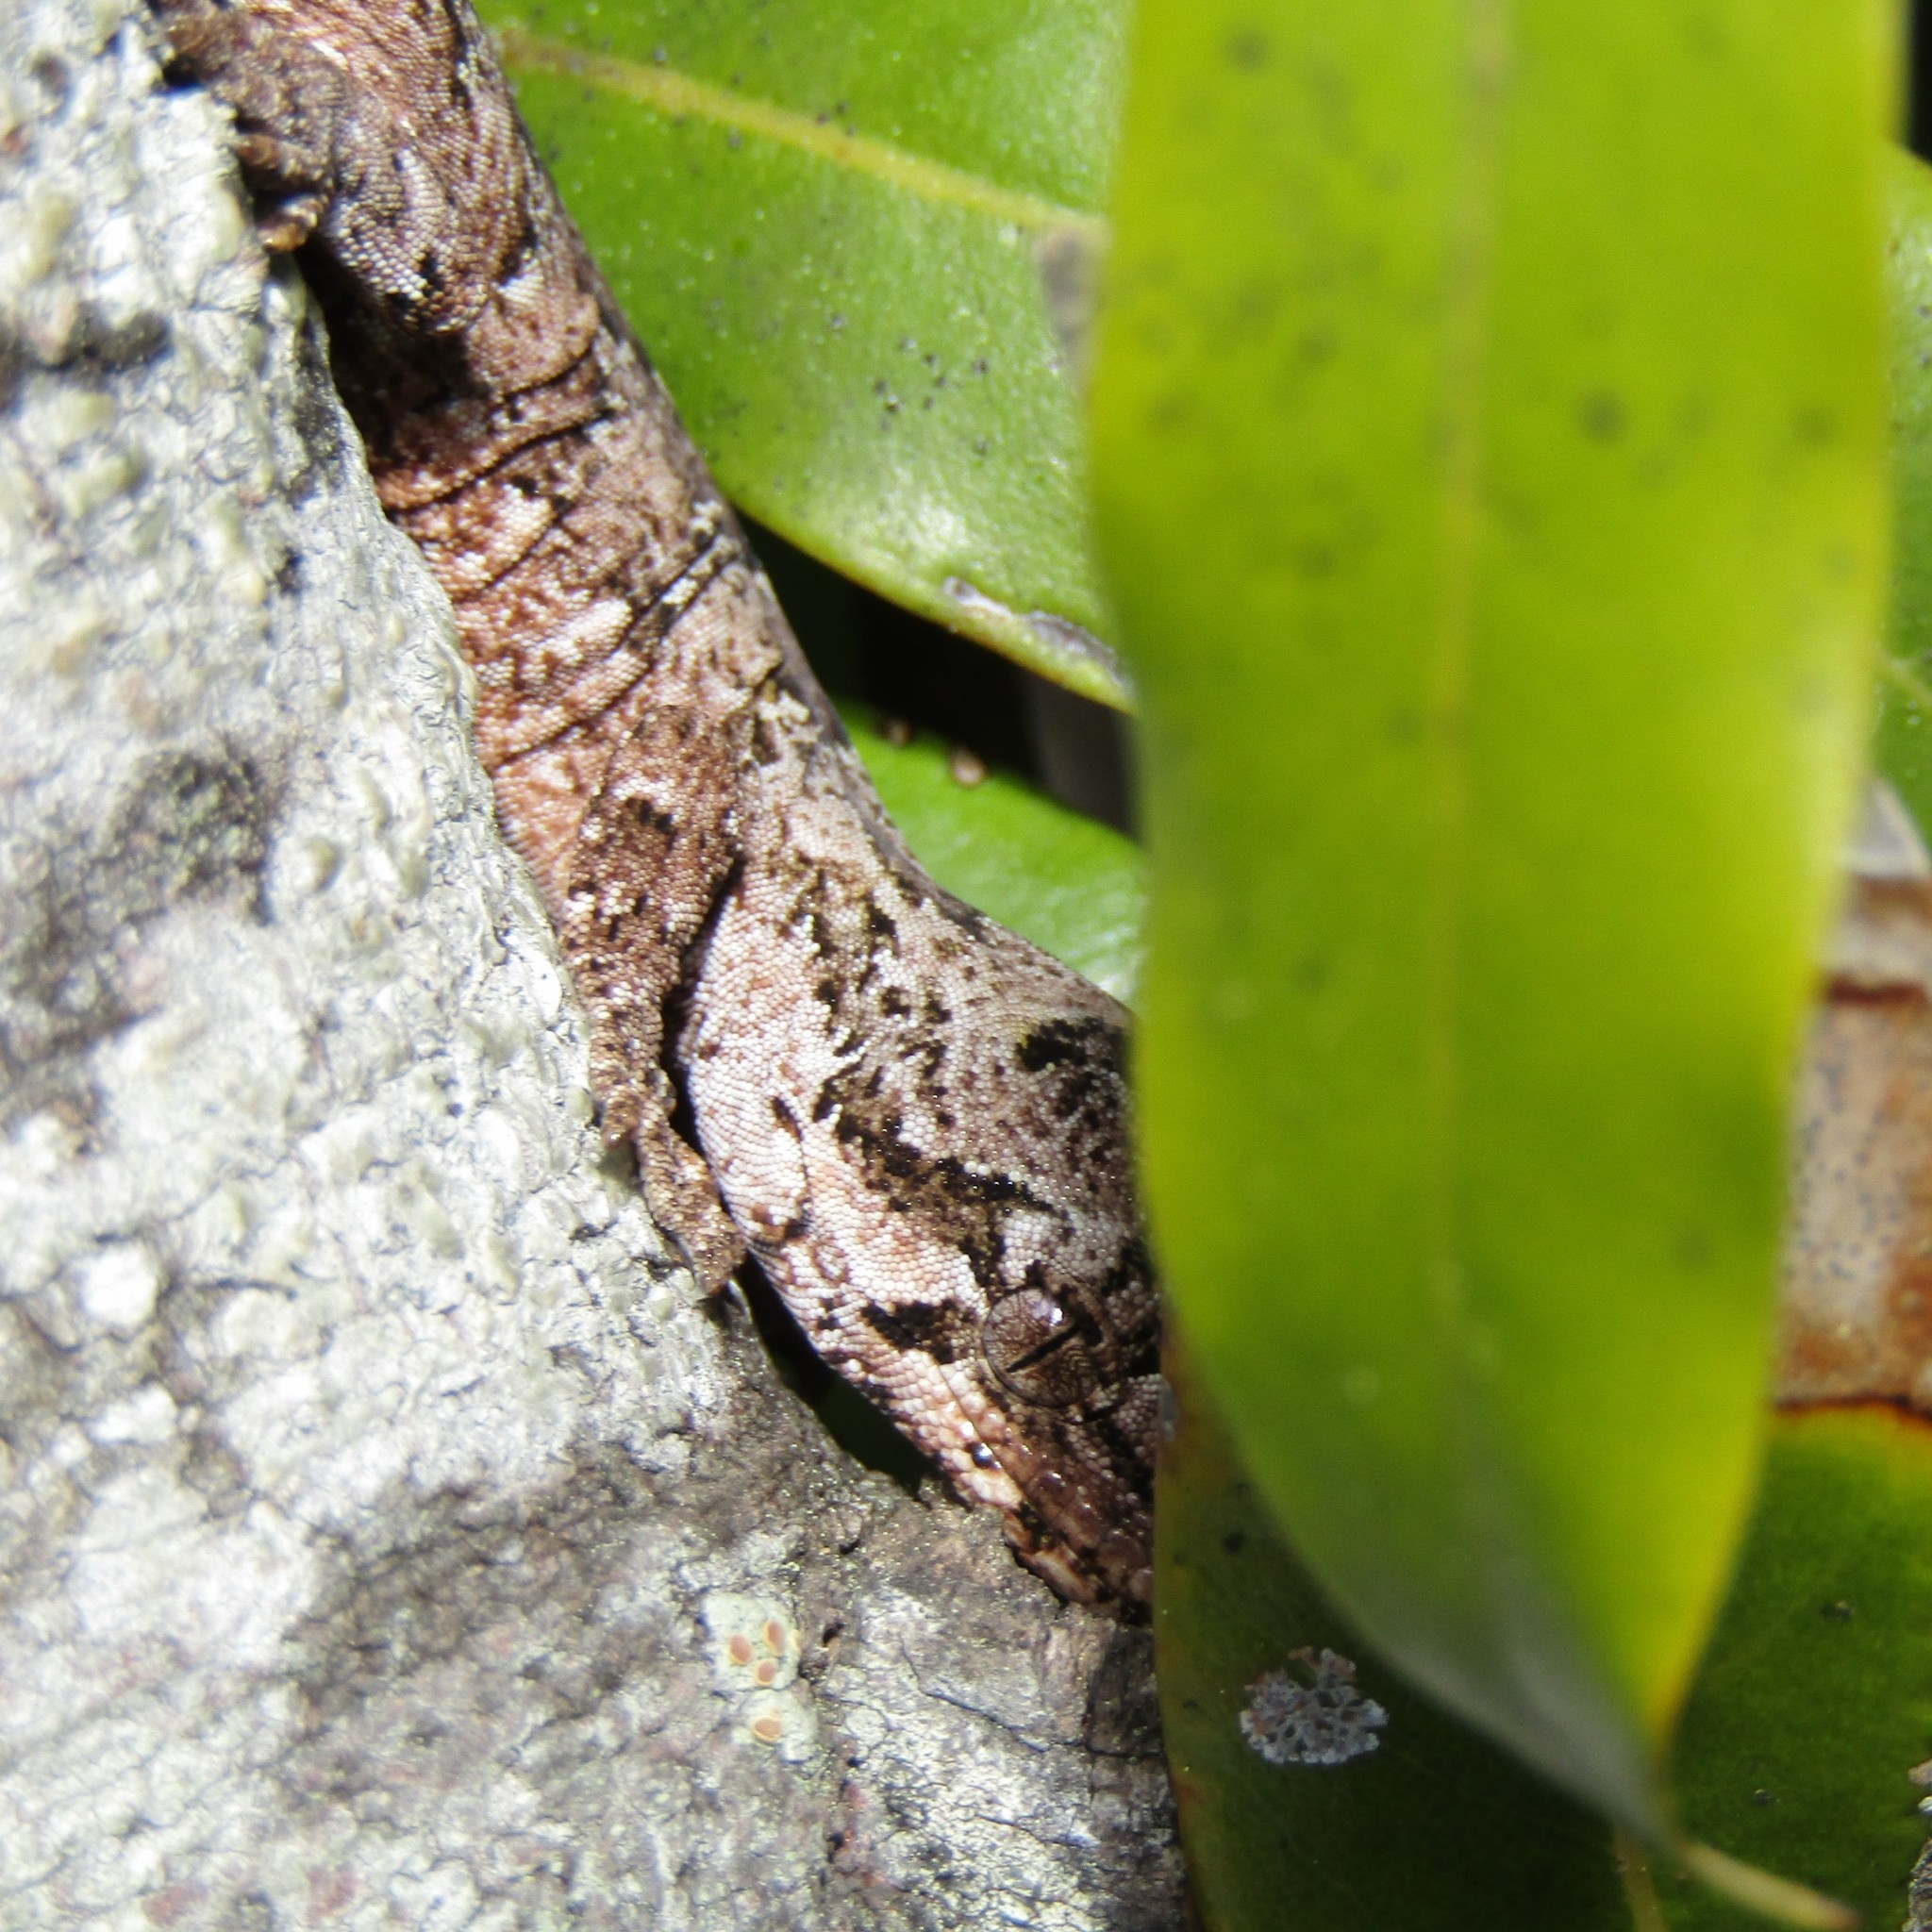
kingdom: Animalia
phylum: Chordata
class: Squamata
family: Diplodactylidae
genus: Mokopirirakau
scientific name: Mokopirirakau
